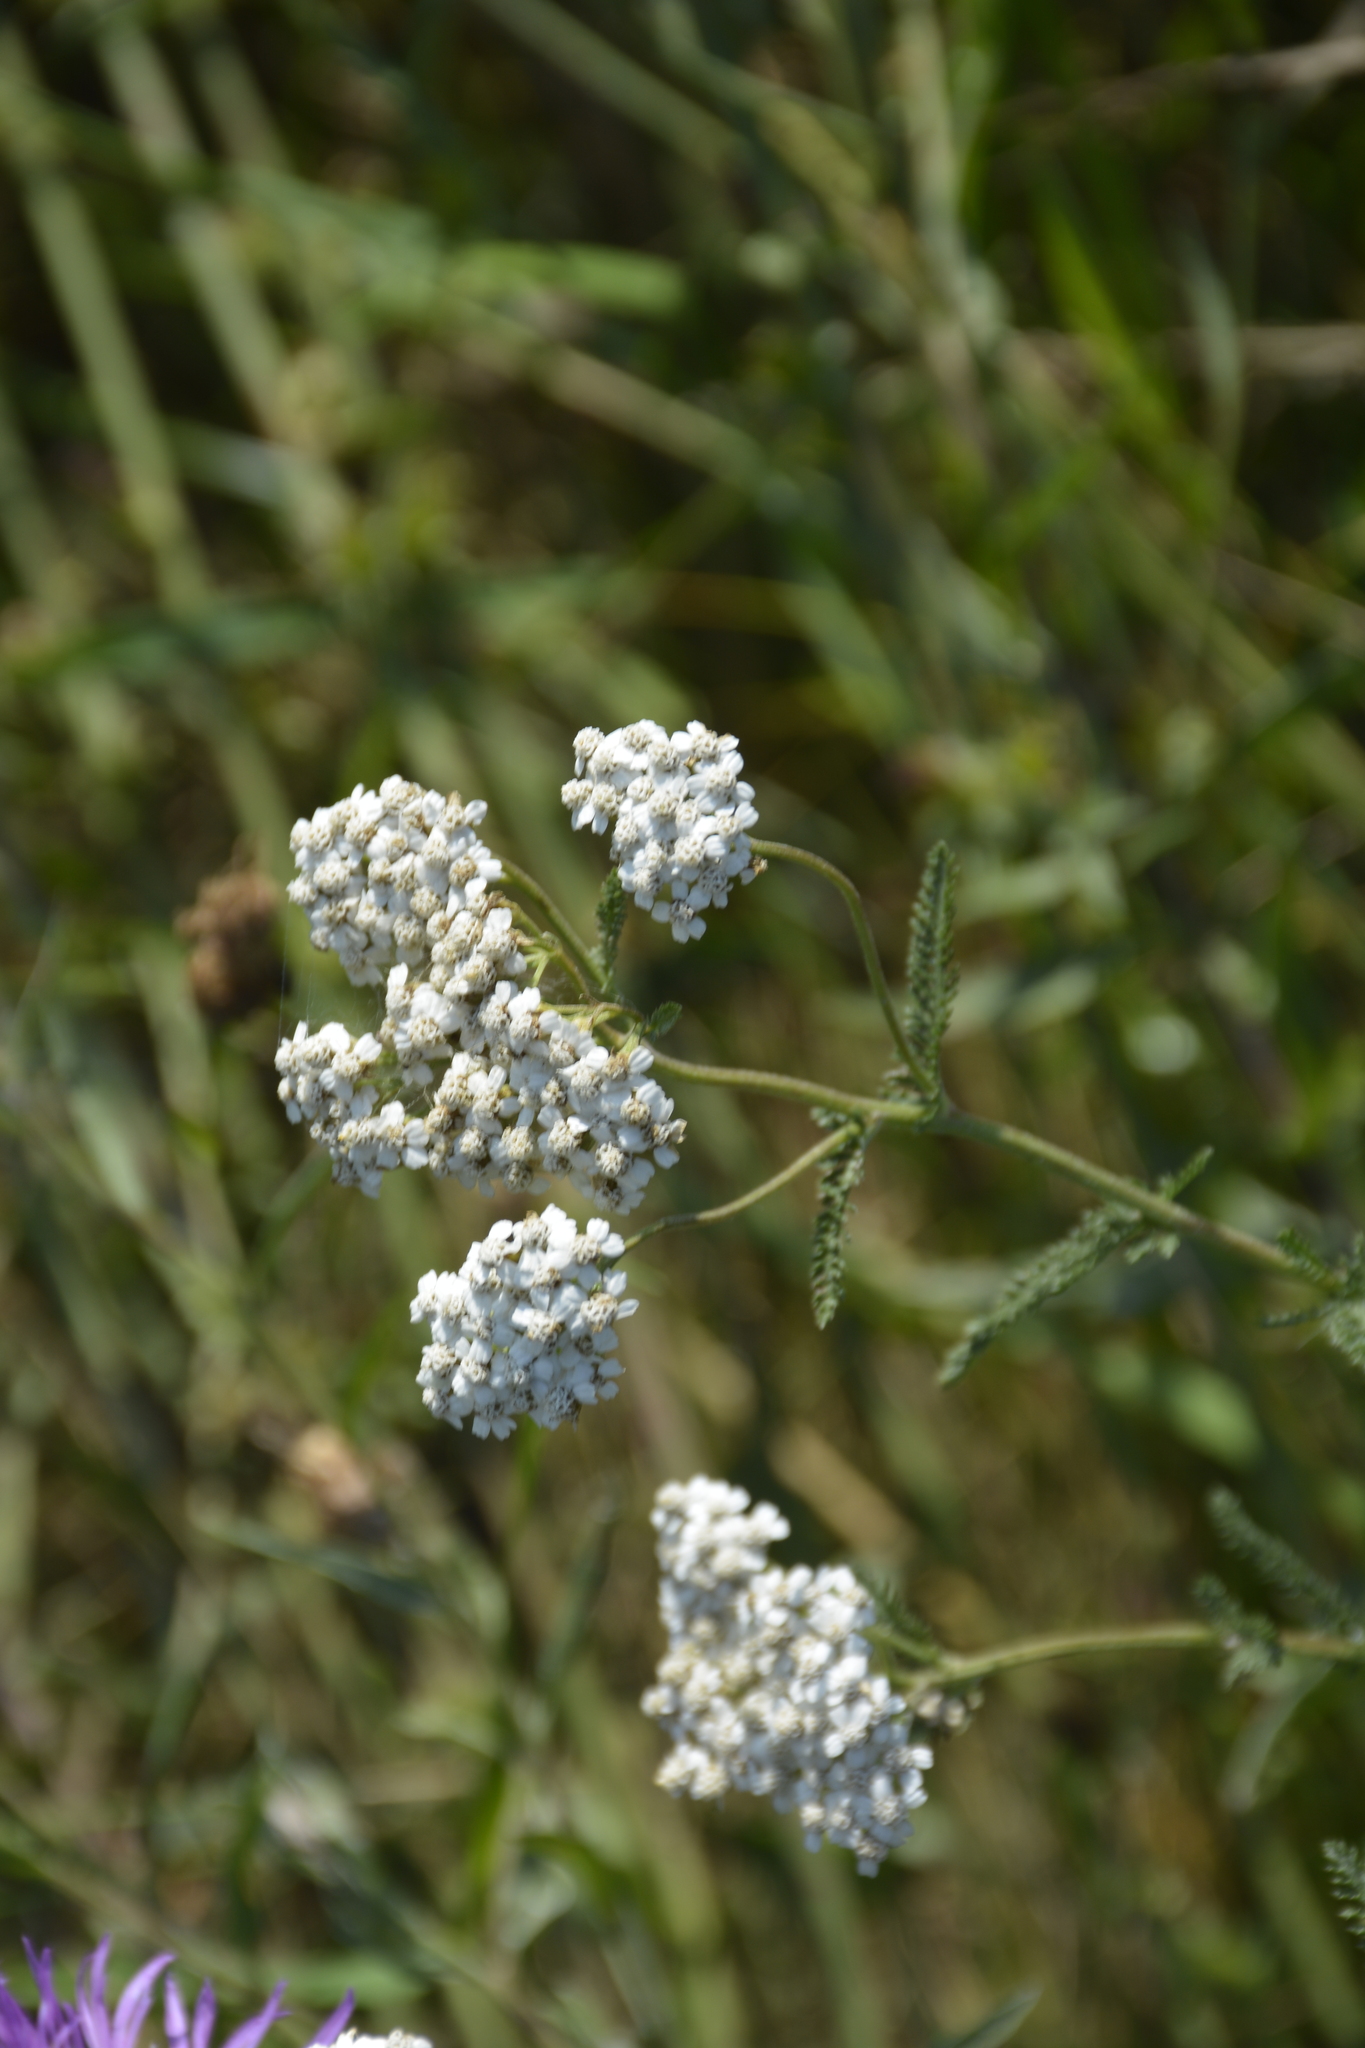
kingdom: Plantae
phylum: Tracheophyta
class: Magnoliopsida
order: Asterales
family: Asteraceae
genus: Achillea
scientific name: Achillea millefolium
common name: Yarrow
